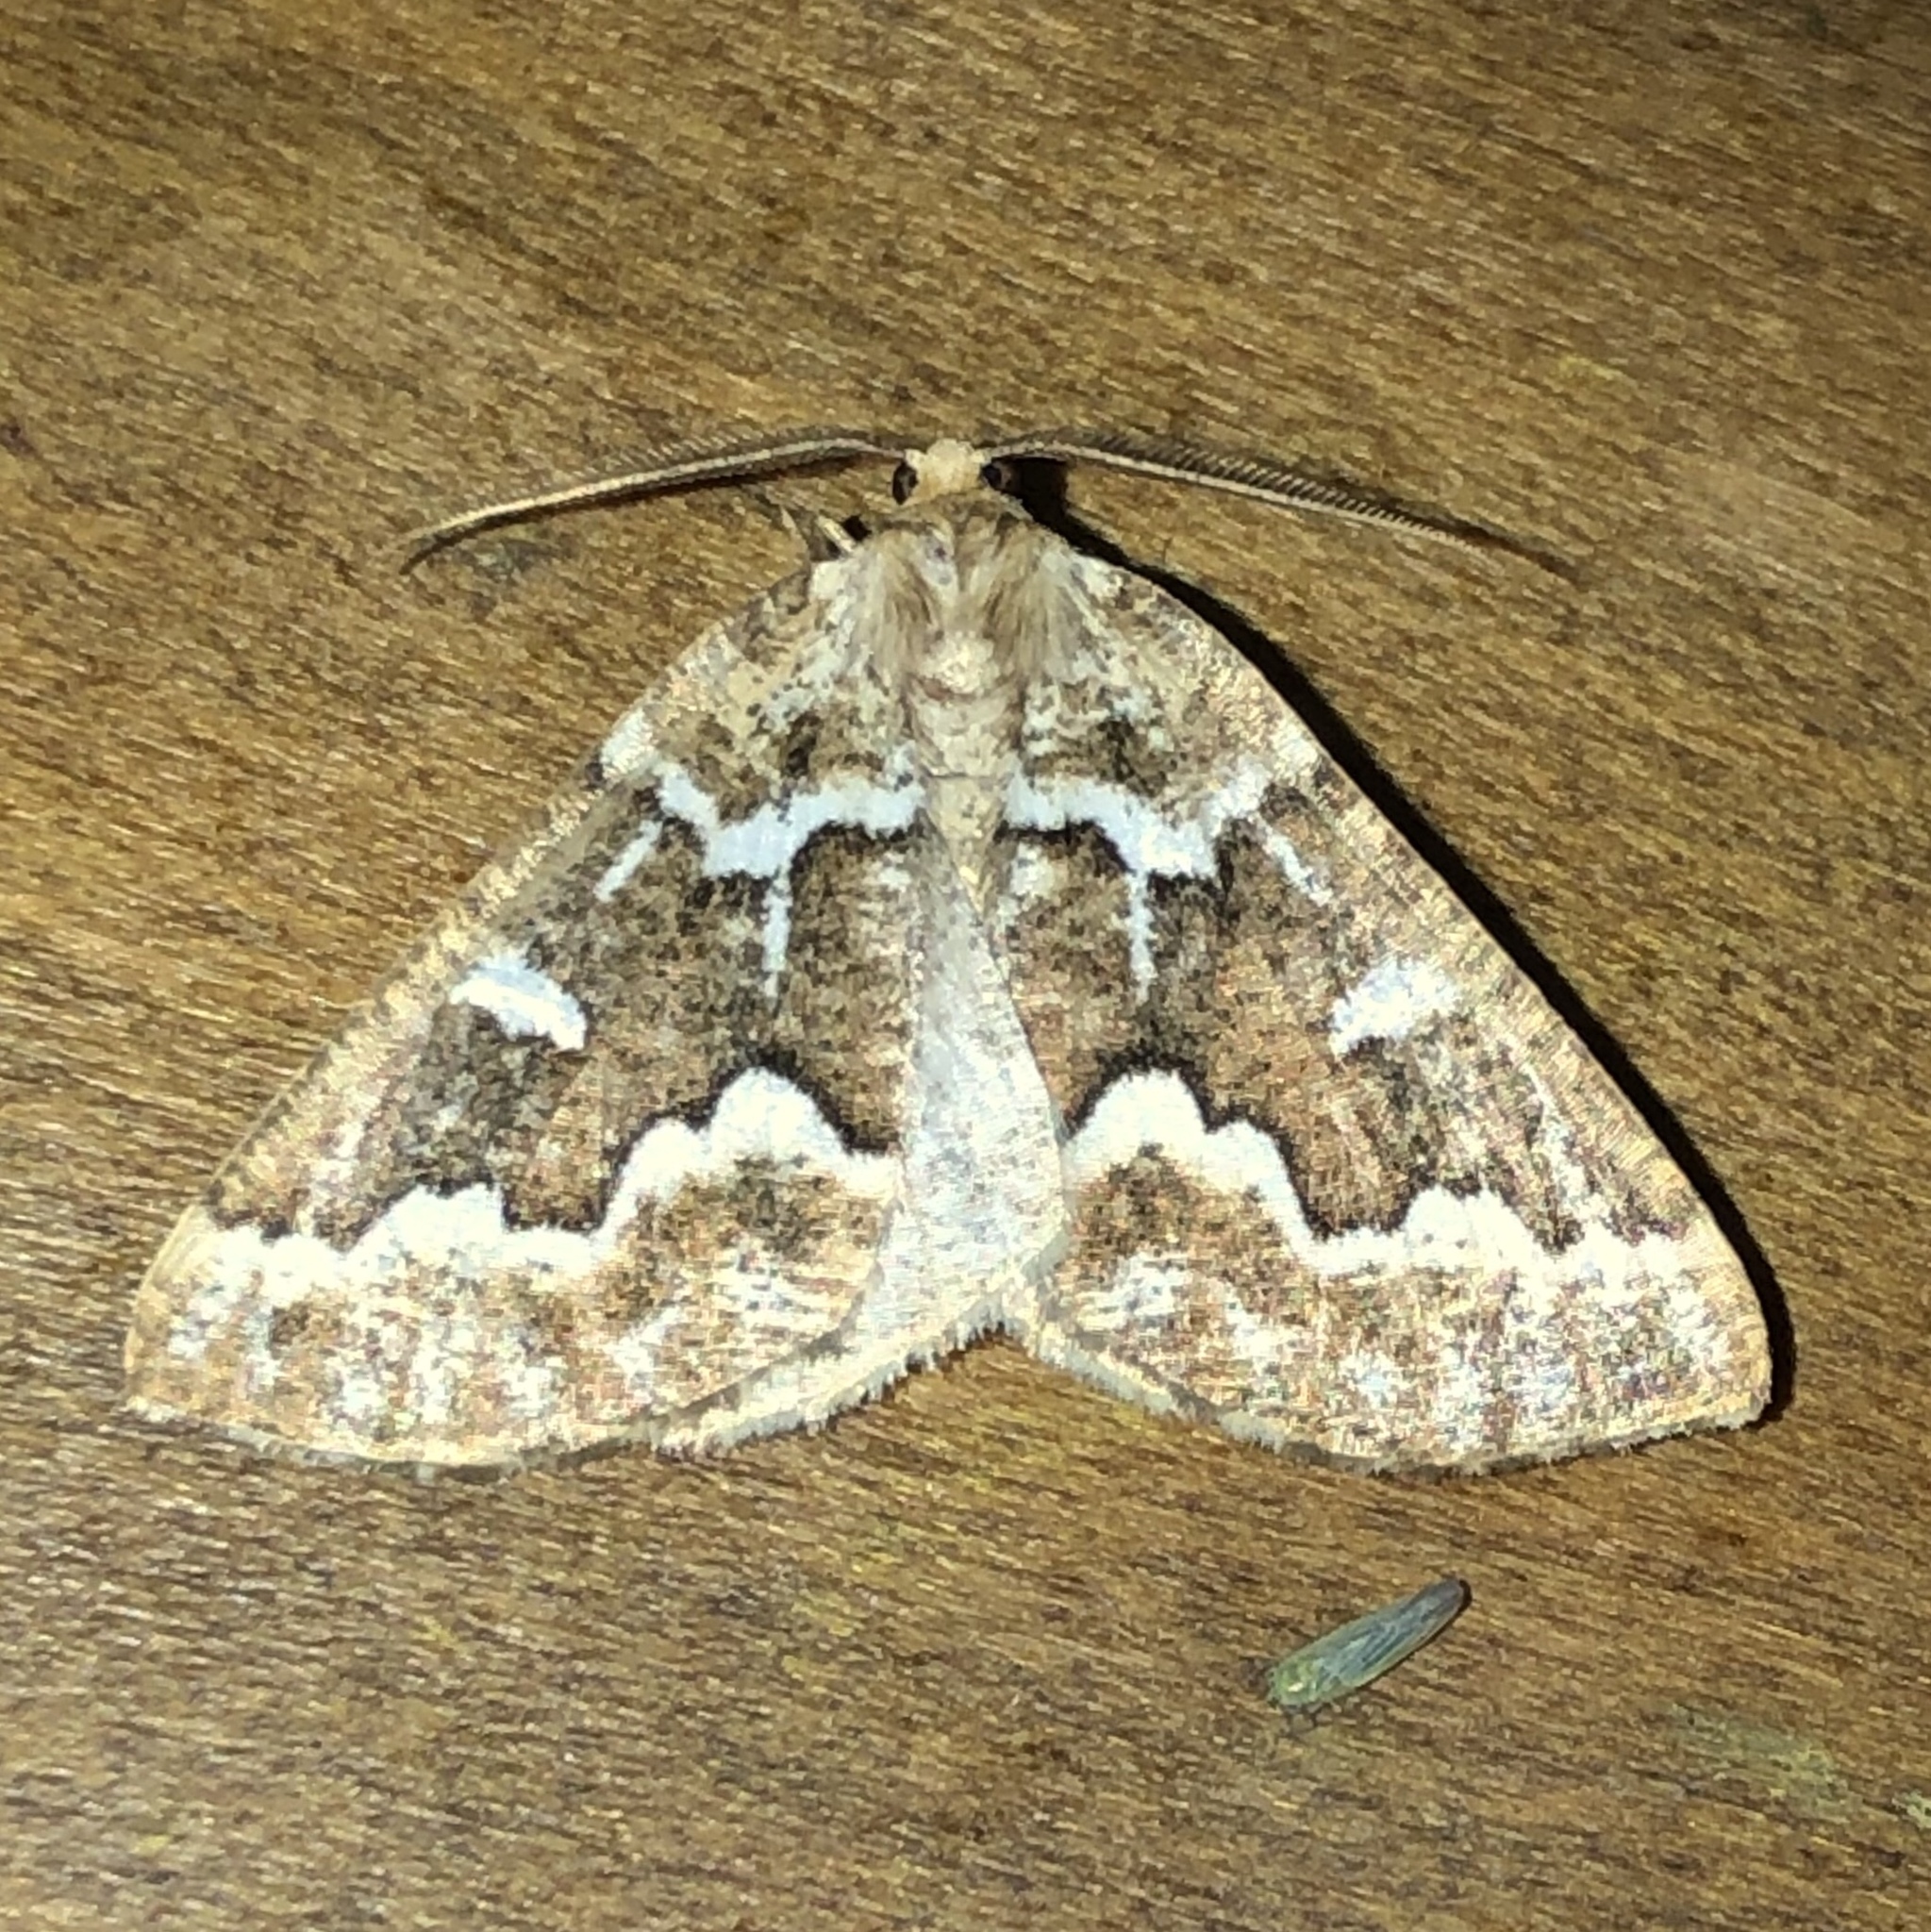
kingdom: Animalia
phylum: Arthropoda
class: Insecta
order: Lepidoptera
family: Geometridae
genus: Caripeta
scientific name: Caripeta divisata
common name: Gray spruce looper
